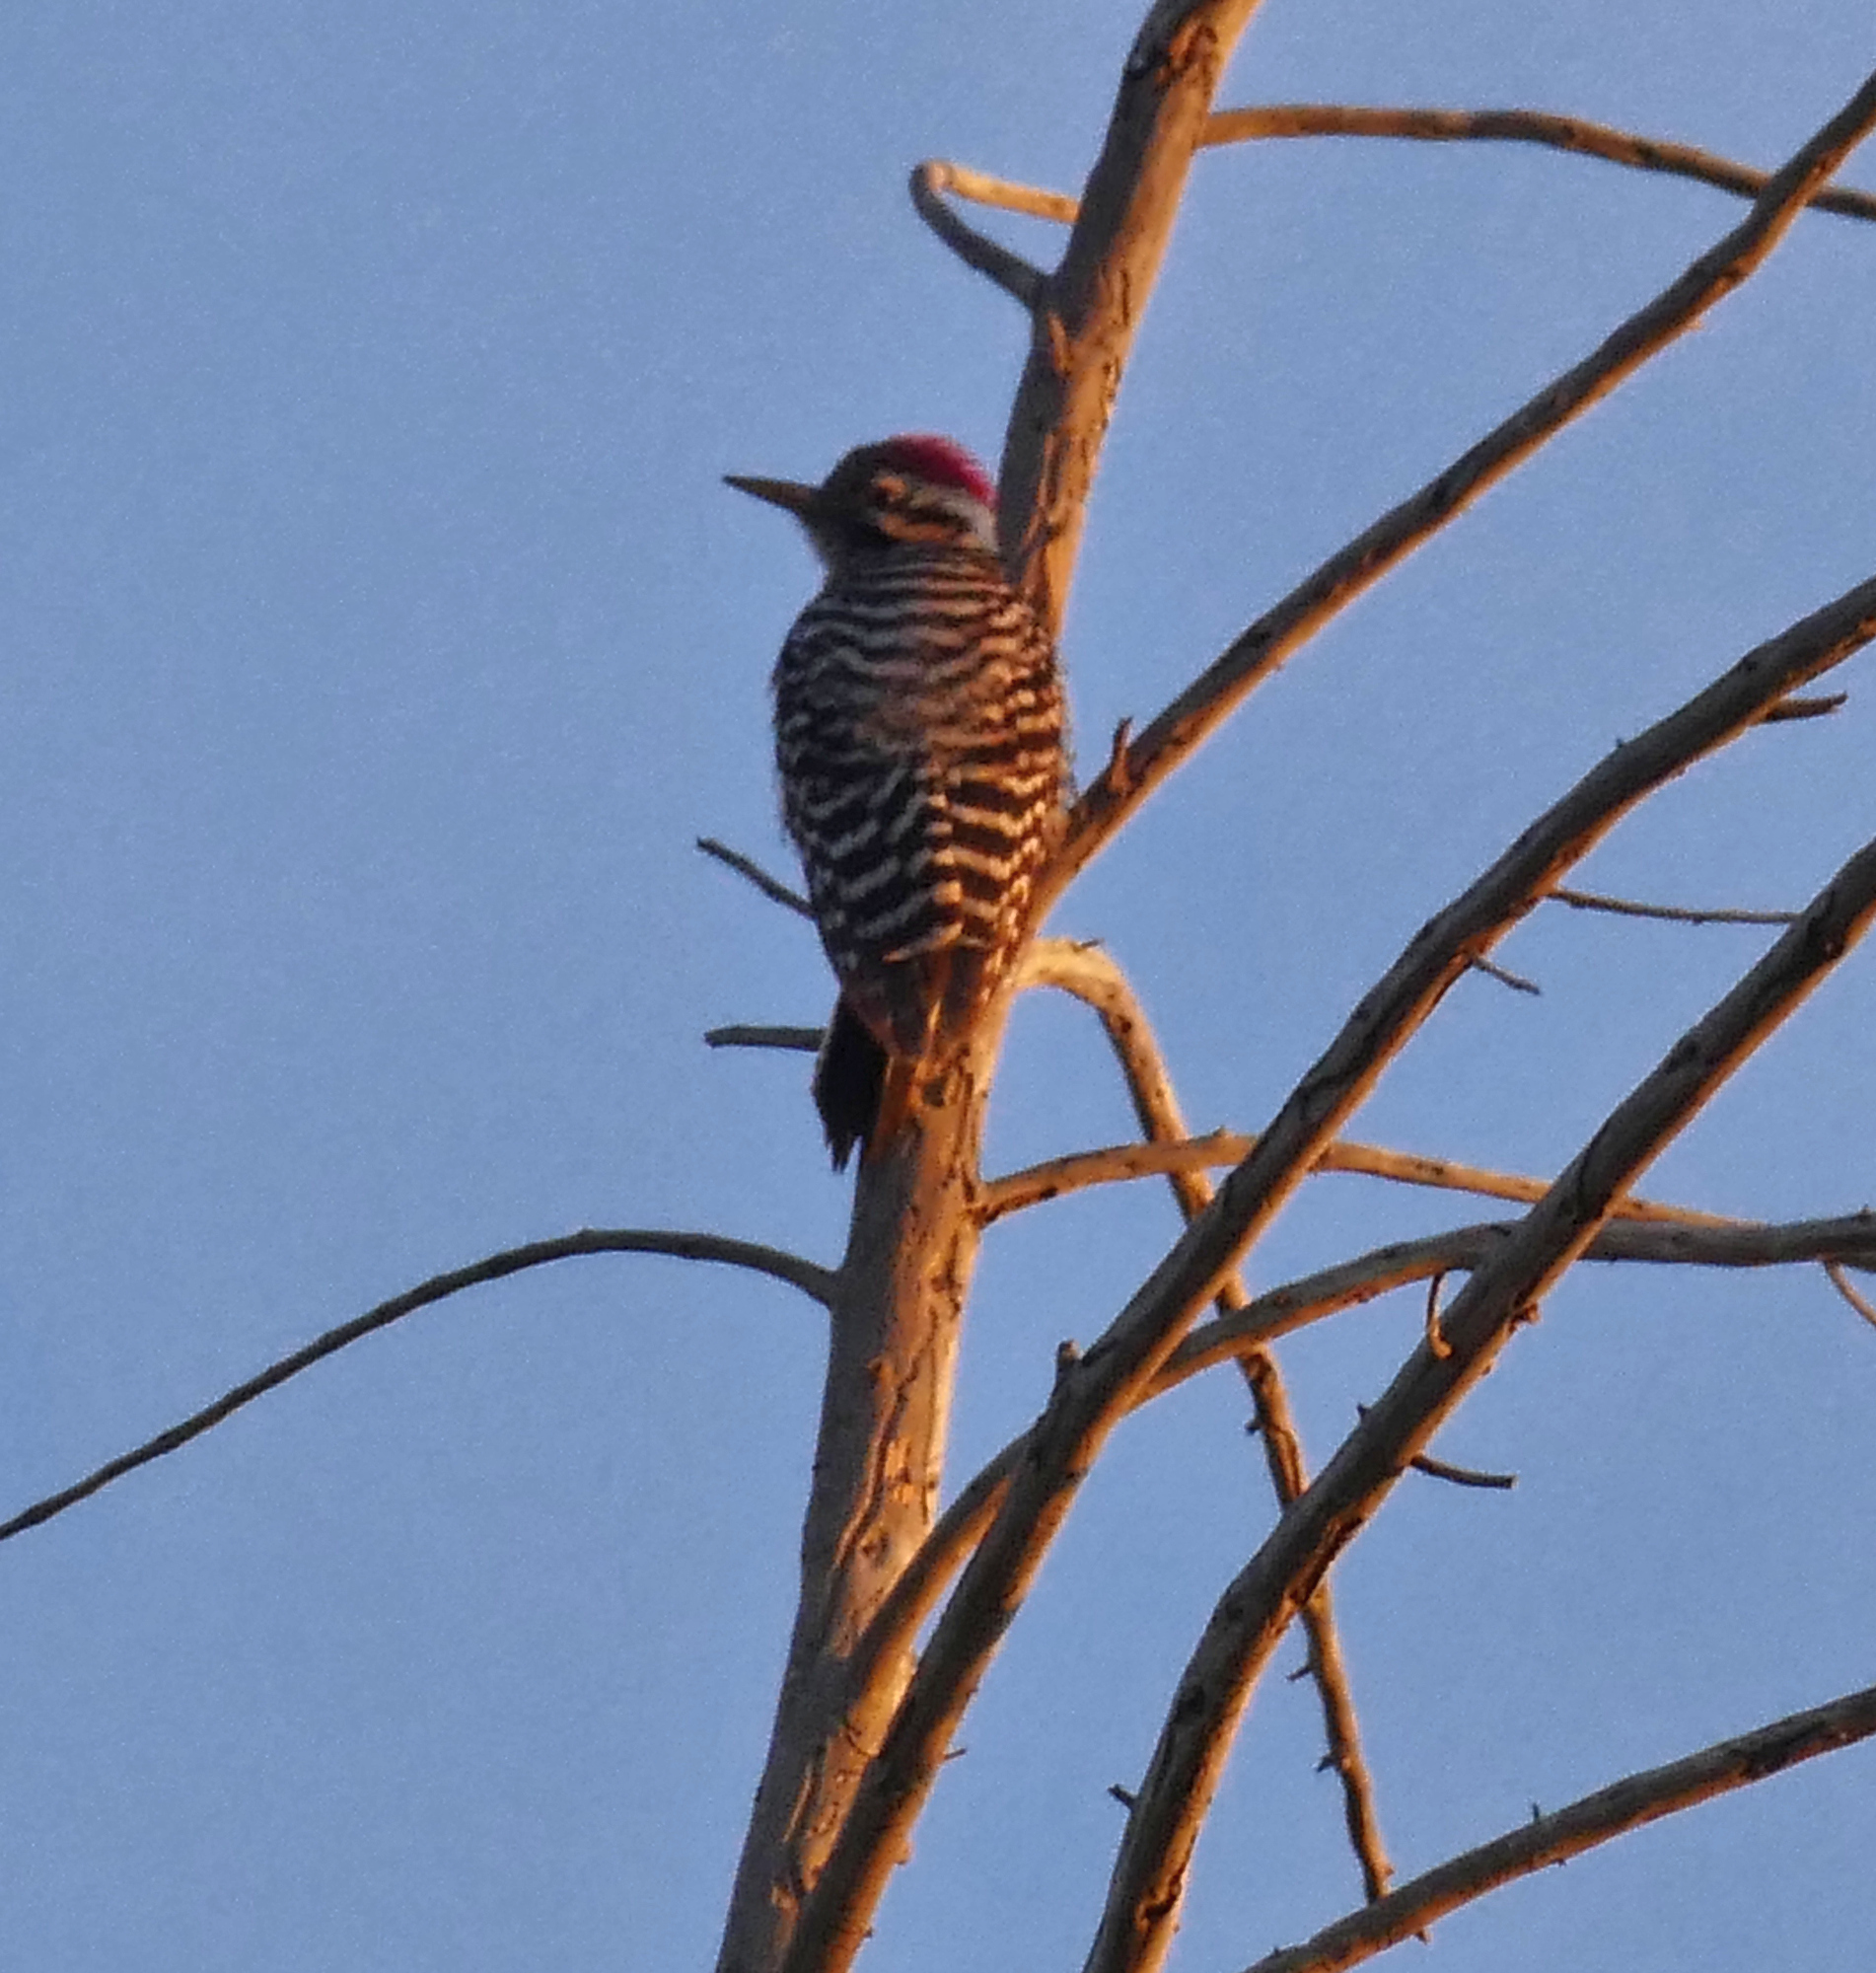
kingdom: Animalia
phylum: Chordata
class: Aves
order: Piciformes
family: Picidae
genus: Dryobates
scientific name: Dryobates scalaris
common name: Ladder-backed woodpecker
